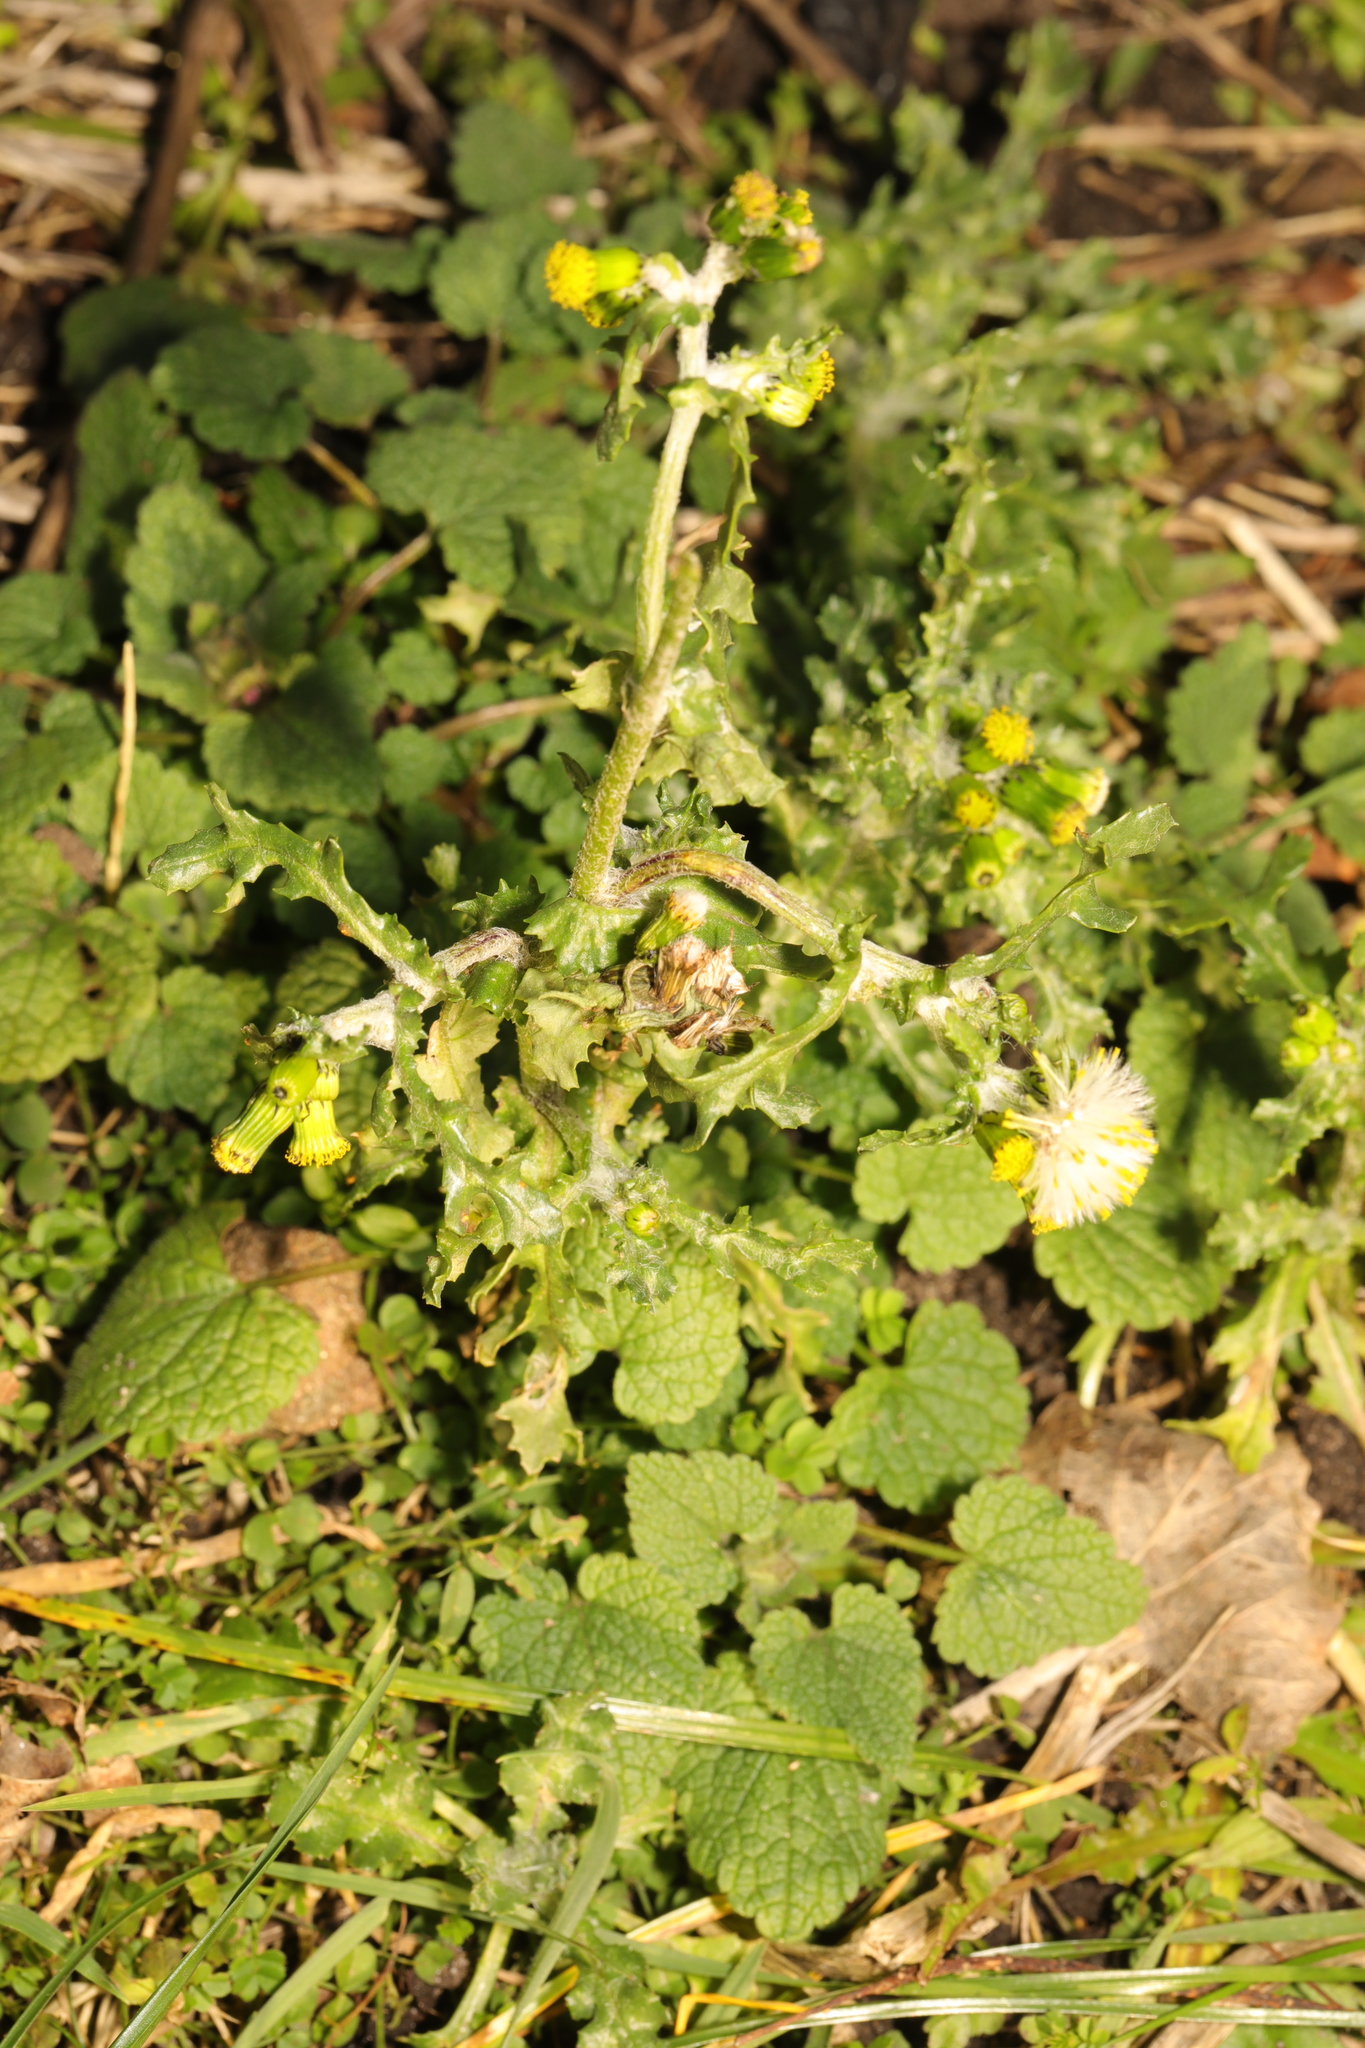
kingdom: Plantae
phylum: Tracheophyta
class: Magnoliopsida
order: Asterales
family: Asteraceae
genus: Senecio
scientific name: Senecio vulgaris
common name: Old-man-in-the-spring
